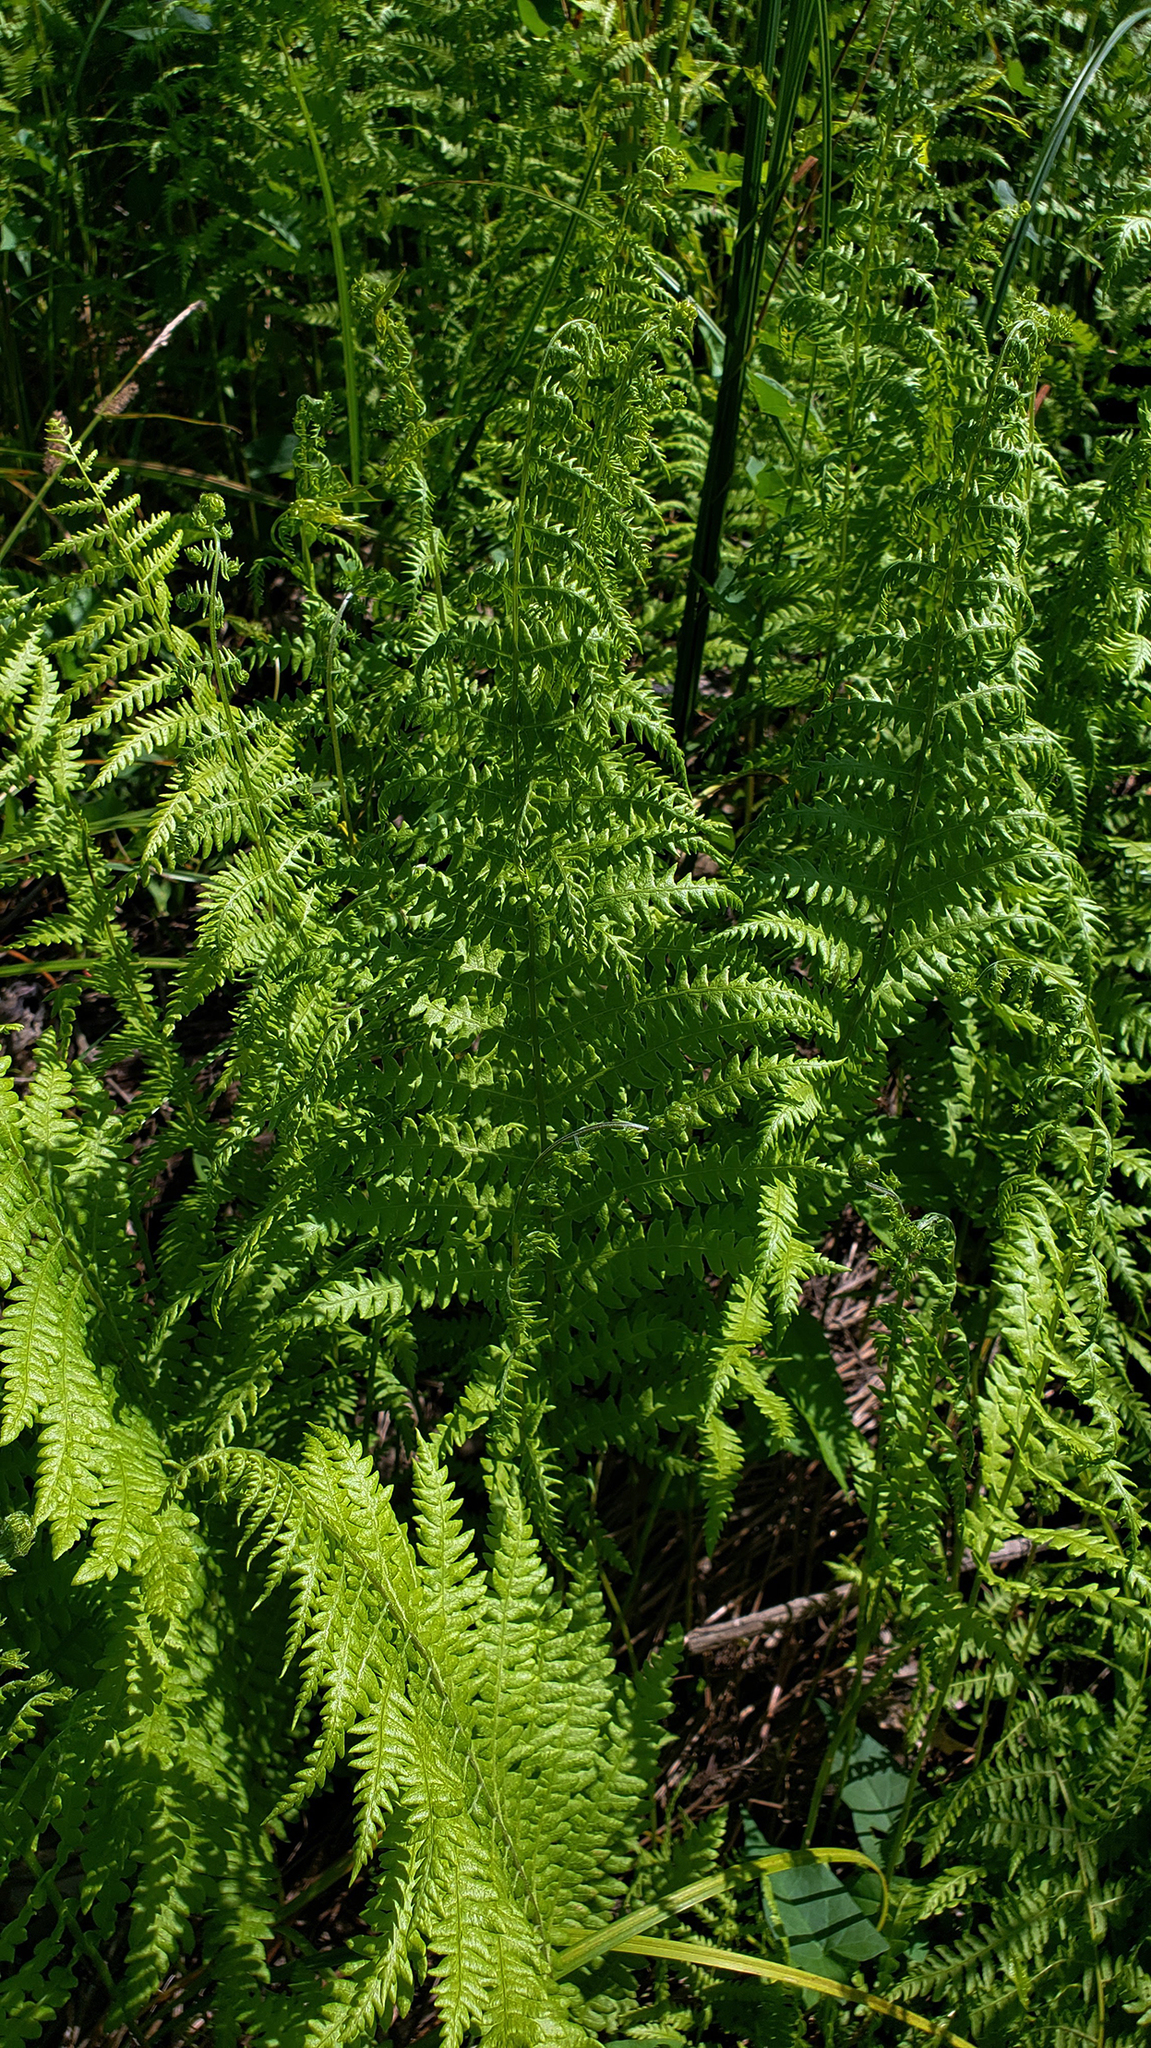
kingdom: Plantae
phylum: Tracheophyta
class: Polypodiopsida
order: Polypodiales
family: Thelypteridaceae
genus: Thelypteris
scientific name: Thelypteris palustris
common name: Marsh fern
